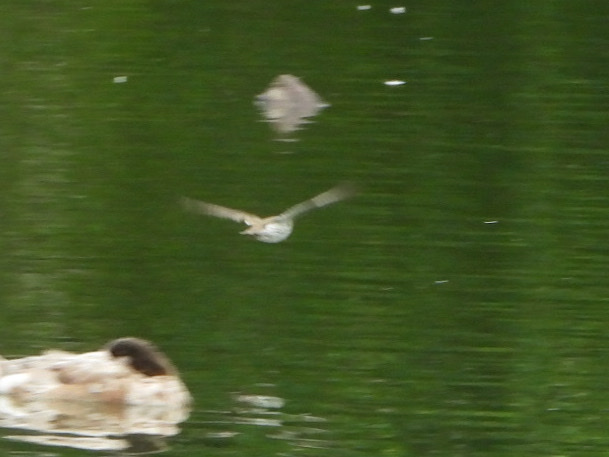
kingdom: Animalia
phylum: Chordata
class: Aves
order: Charadriiformes
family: Scolopacidae
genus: Actitis
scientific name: Actitis macularius
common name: Spotted sandpiper
